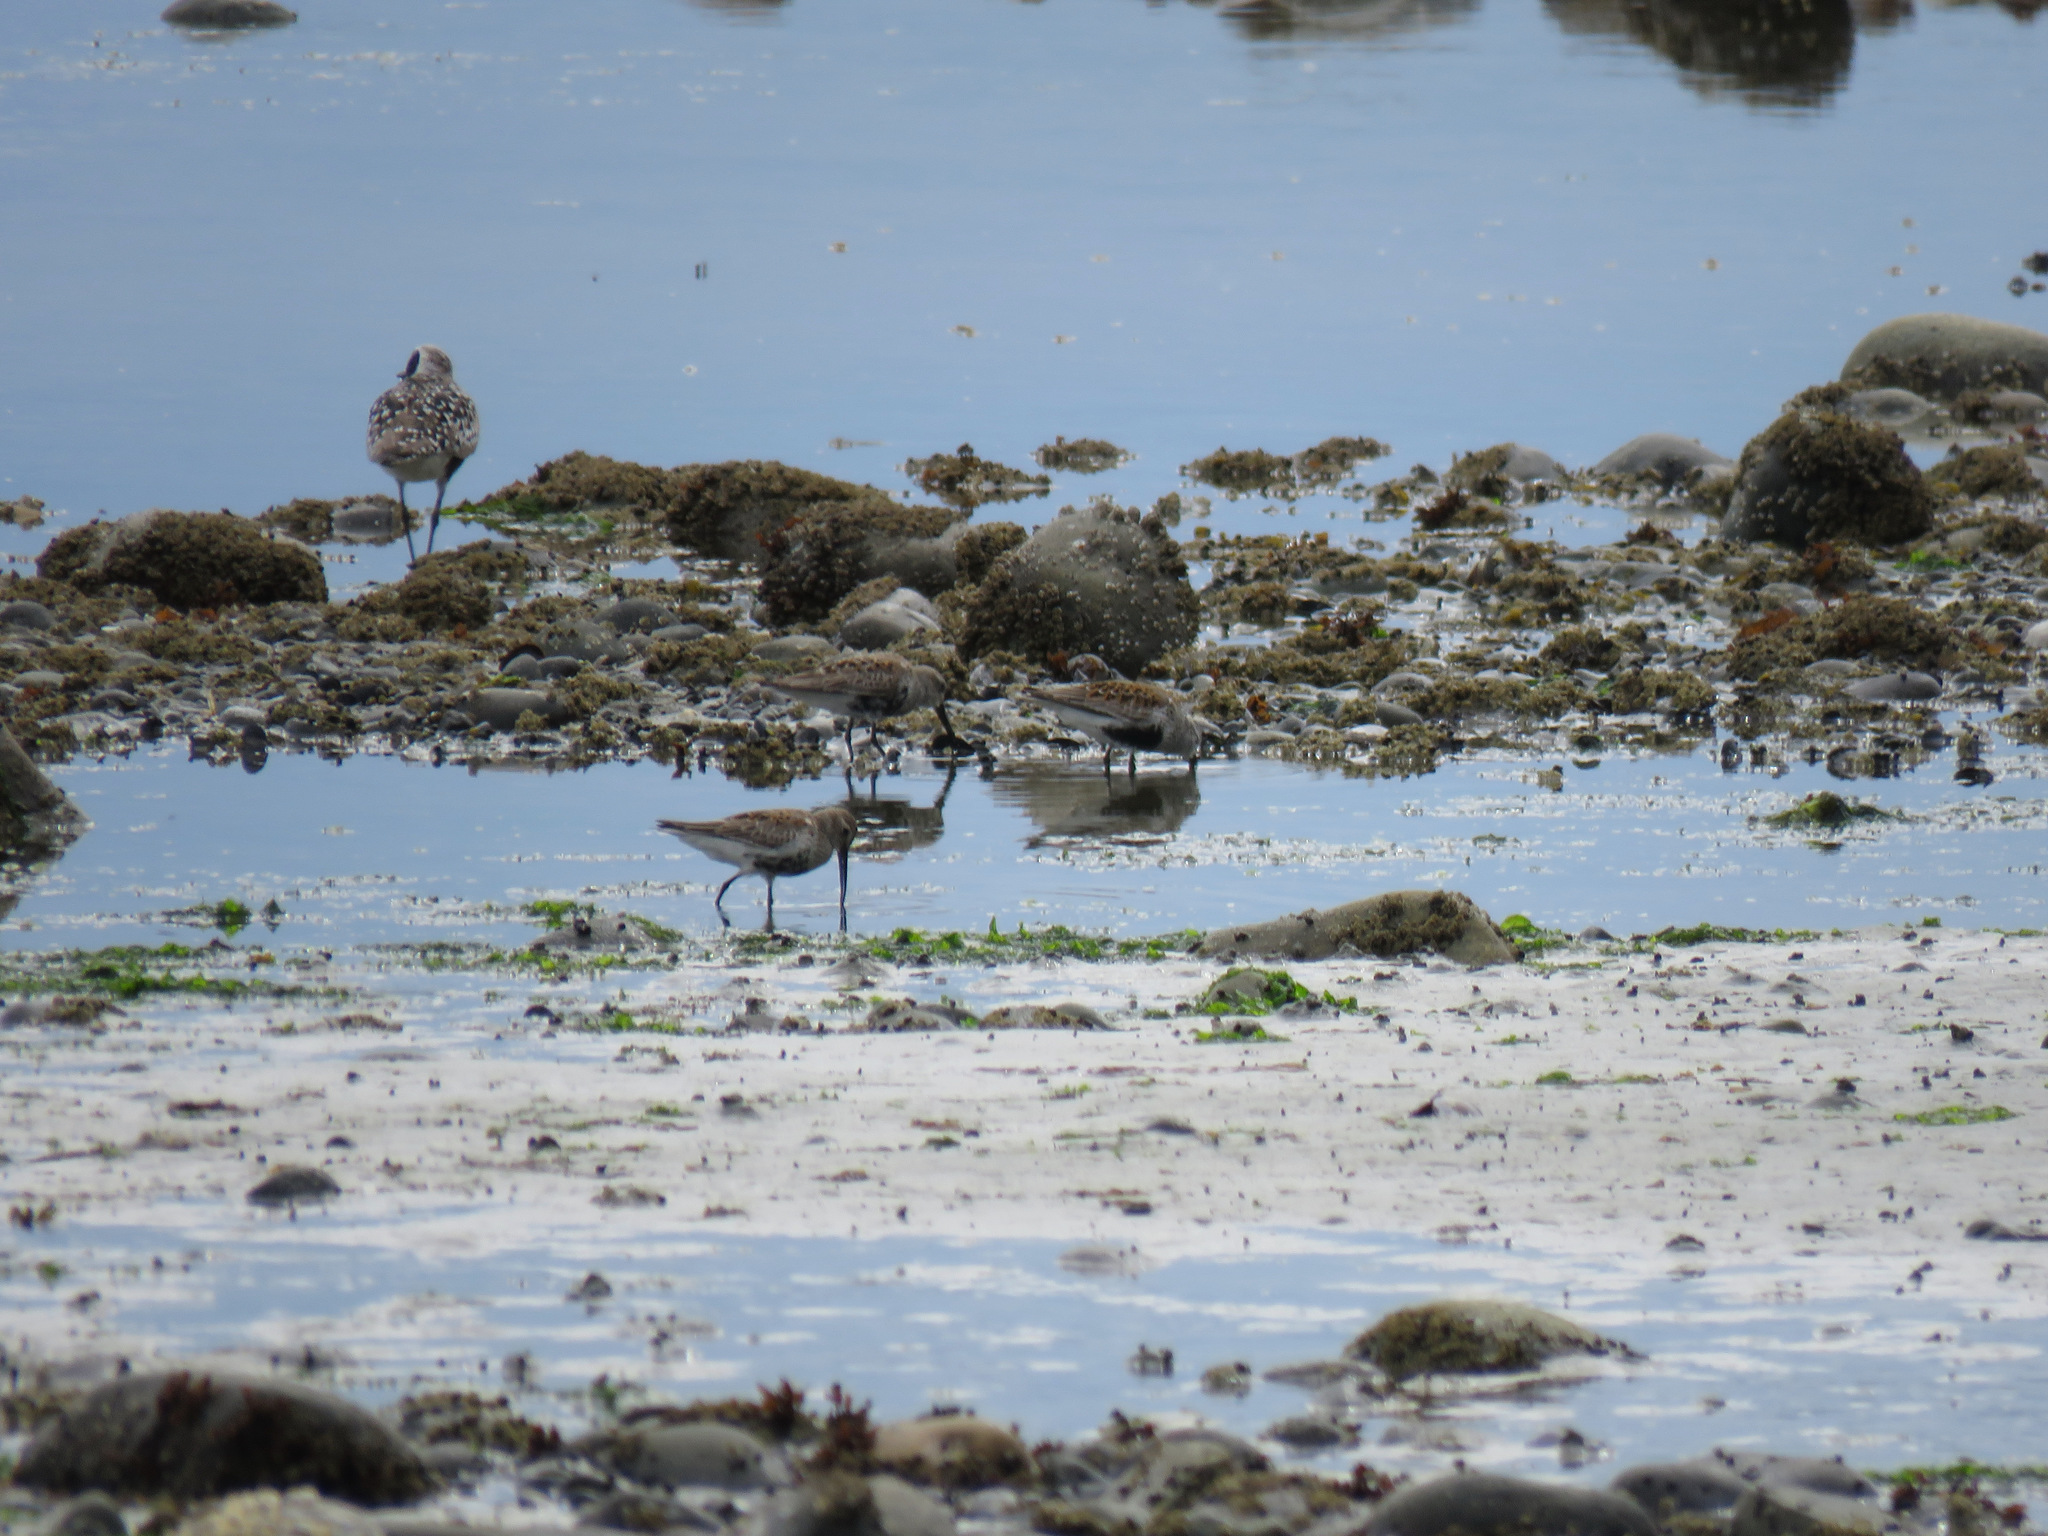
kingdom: Animalia
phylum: Chordata
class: Aves
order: Charadriiformes
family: Scolopacidae
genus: Calidris
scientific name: Calidris alpina
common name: Dunlin
